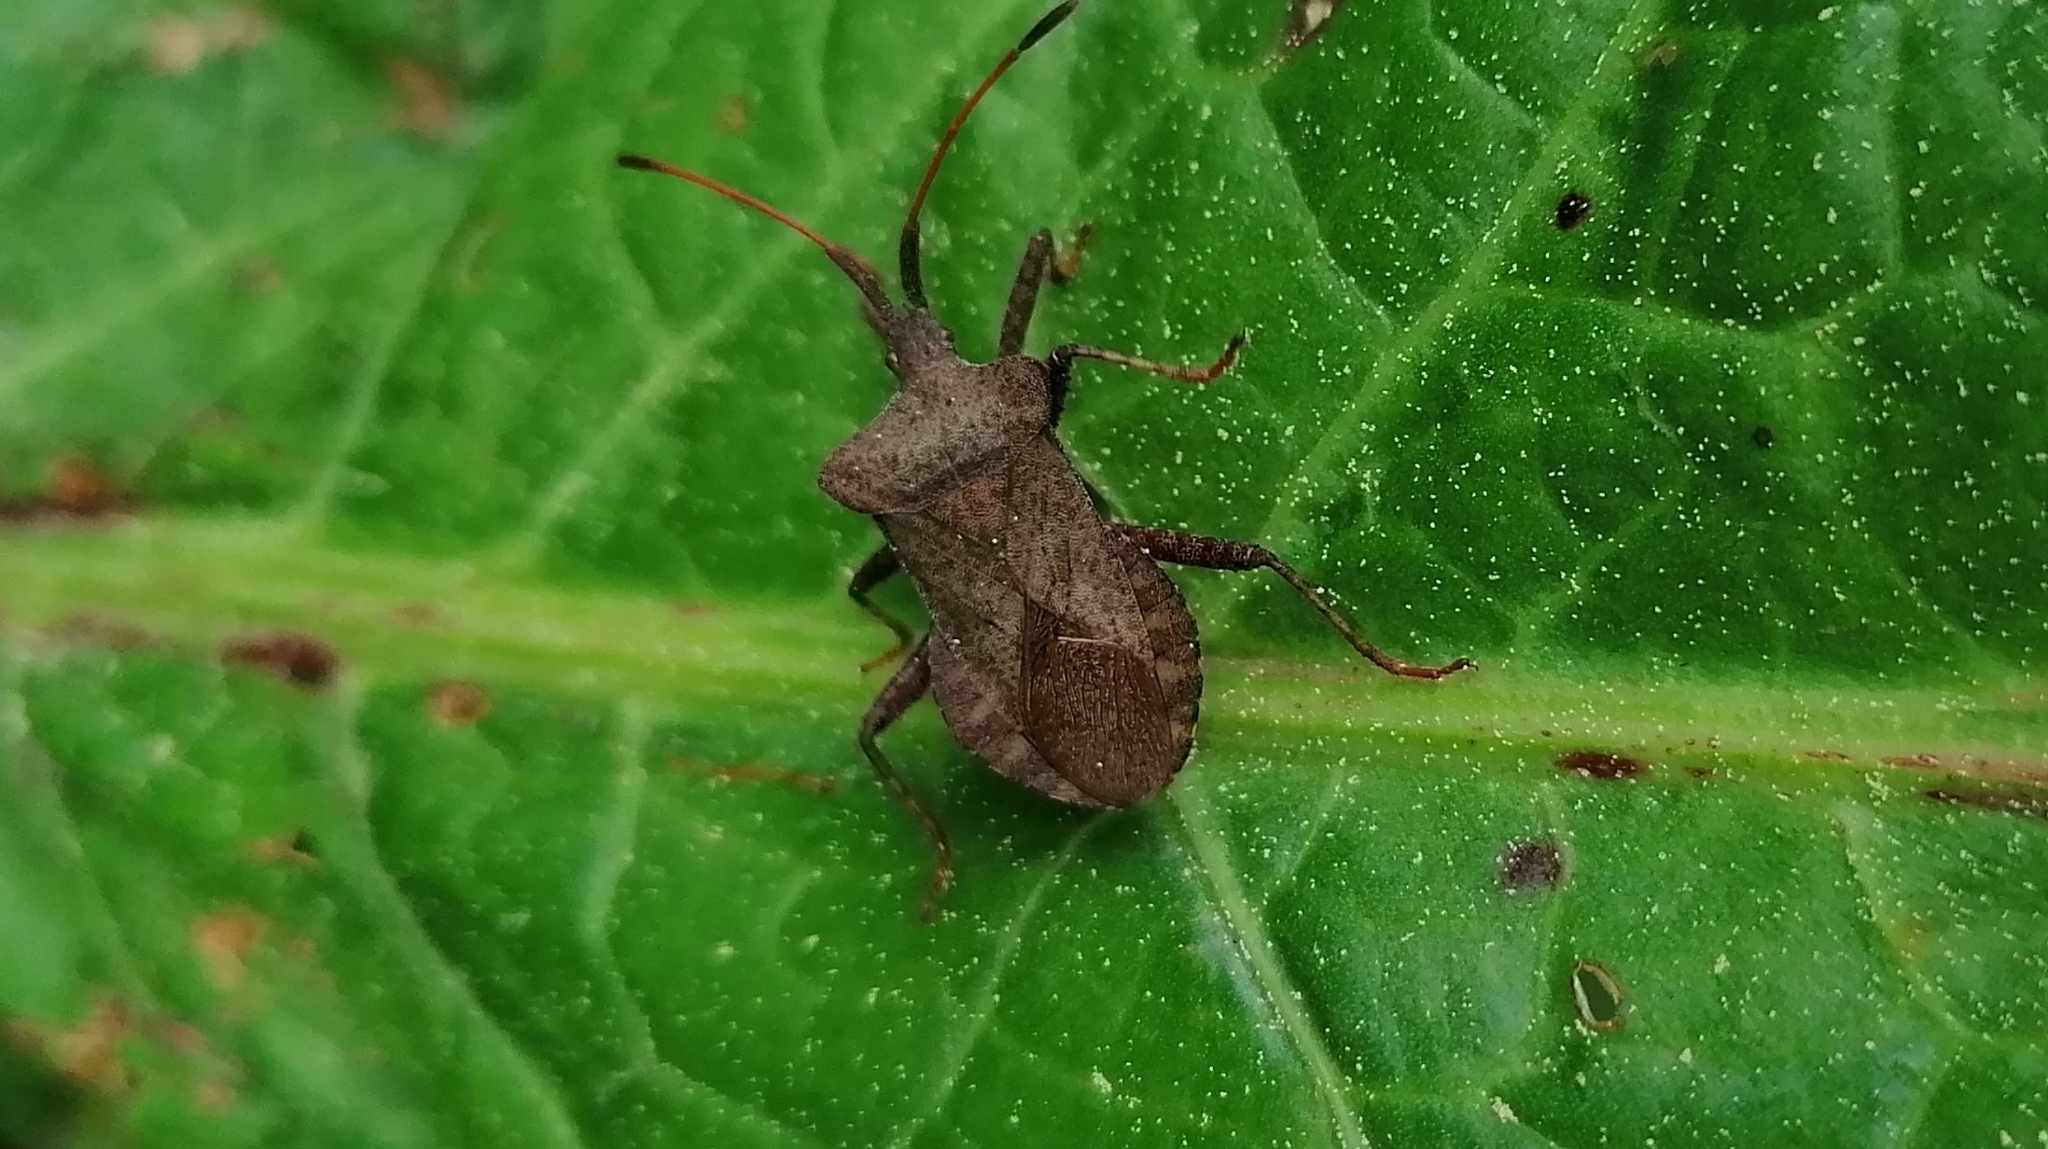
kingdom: Animalia
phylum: Arthropoda
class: Insecta
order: Hemiptera
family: Coreidae
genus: Coreus
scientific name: Coreus marginatus
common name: Dock bug
